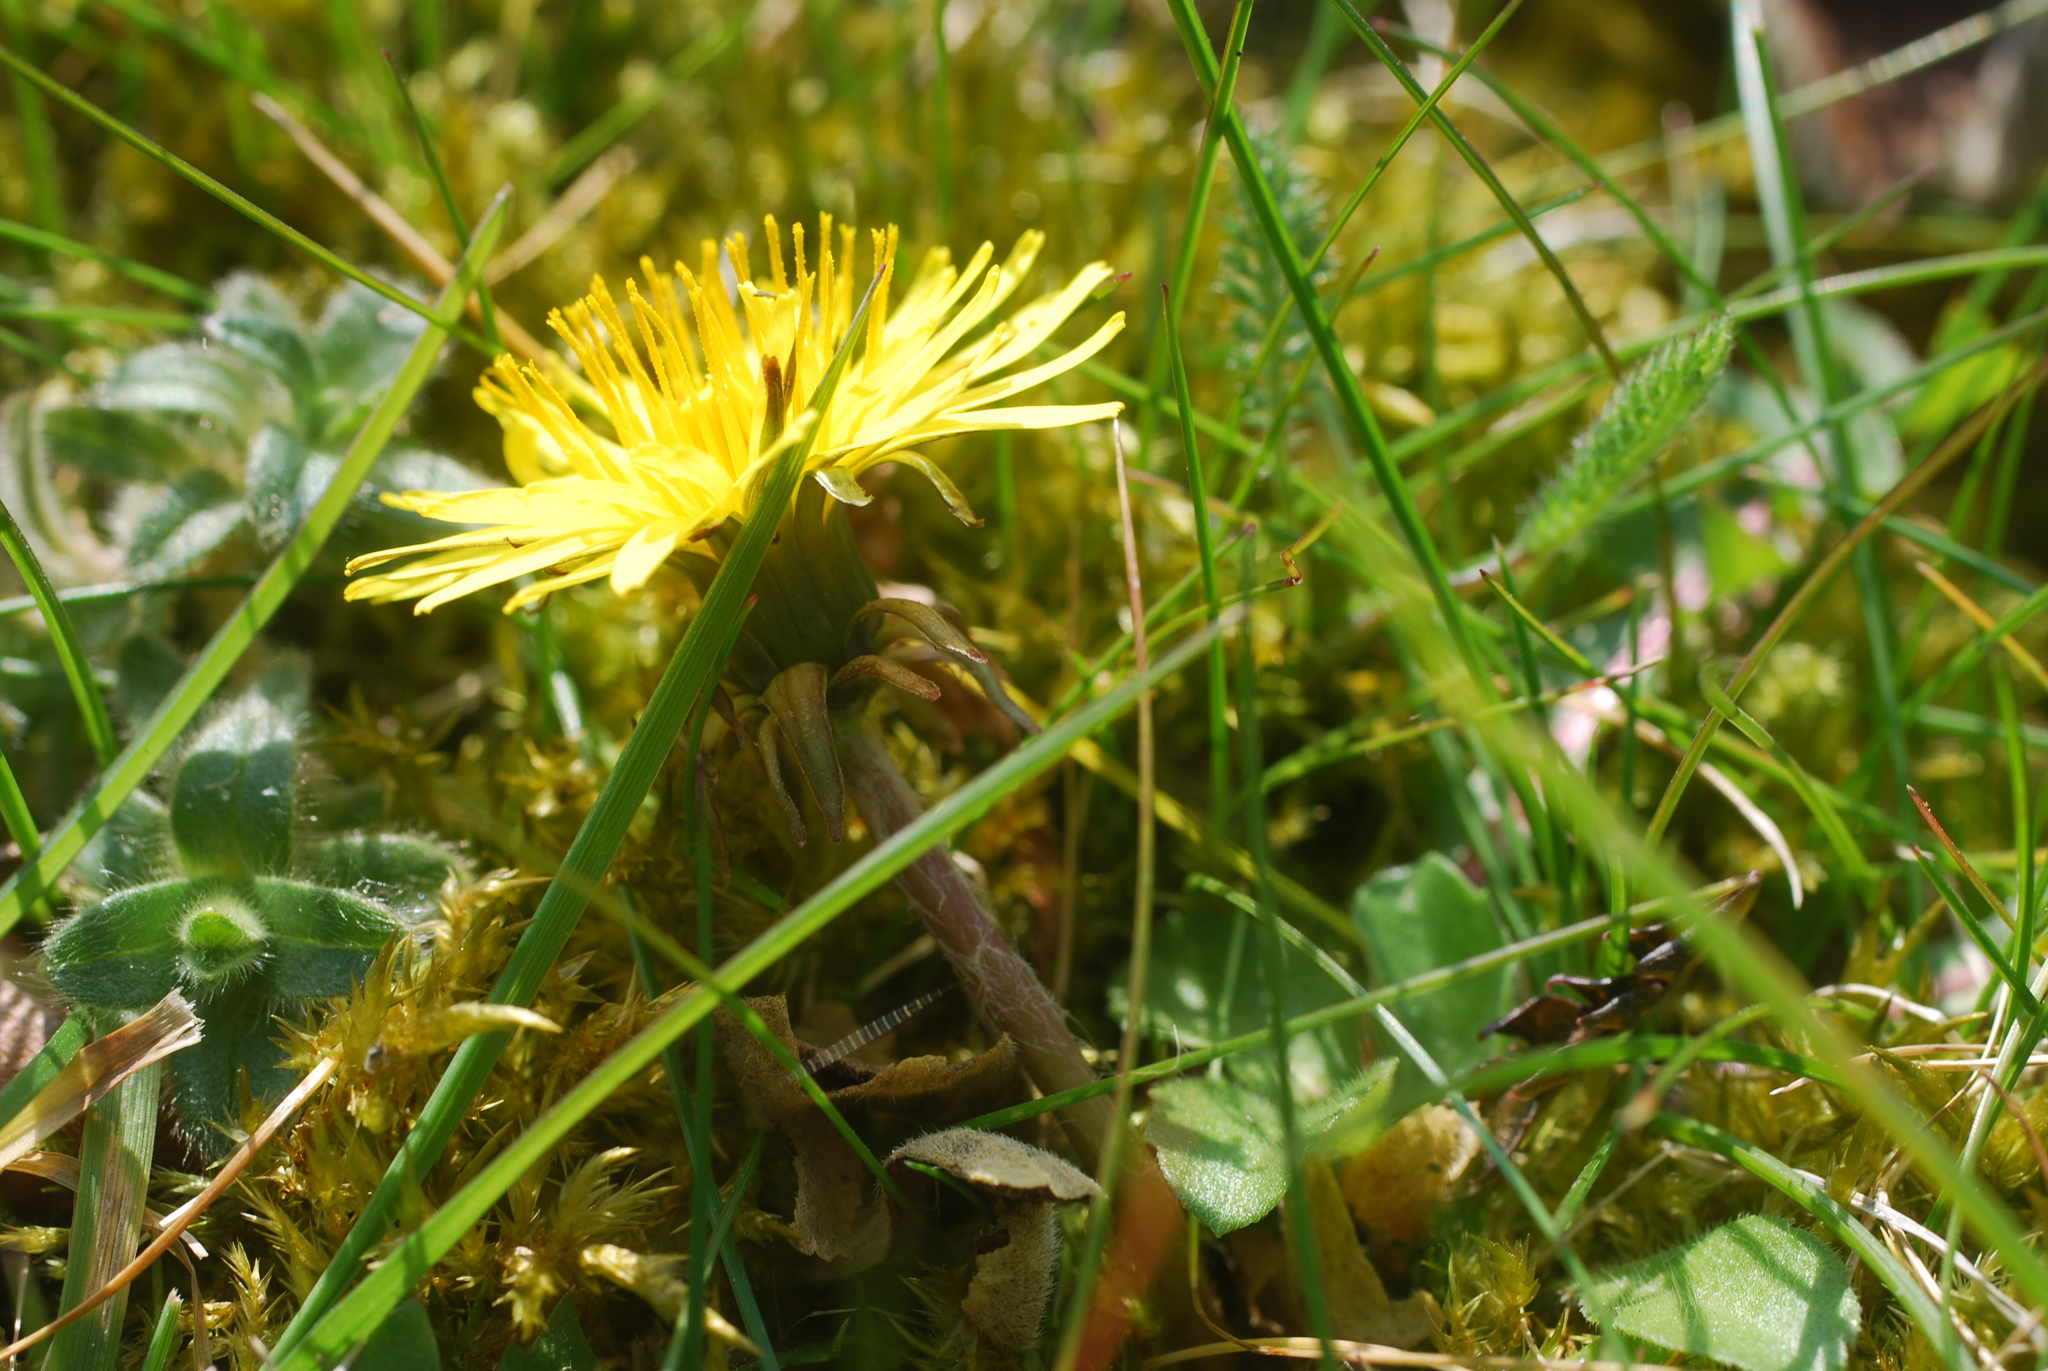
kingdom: Plantae
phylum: Tracheophyta
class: Magnoliopsida
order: Asterales
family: Asteraceae
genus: Taraxacum
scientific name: Taraxacum officinale
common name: Common dandelion
